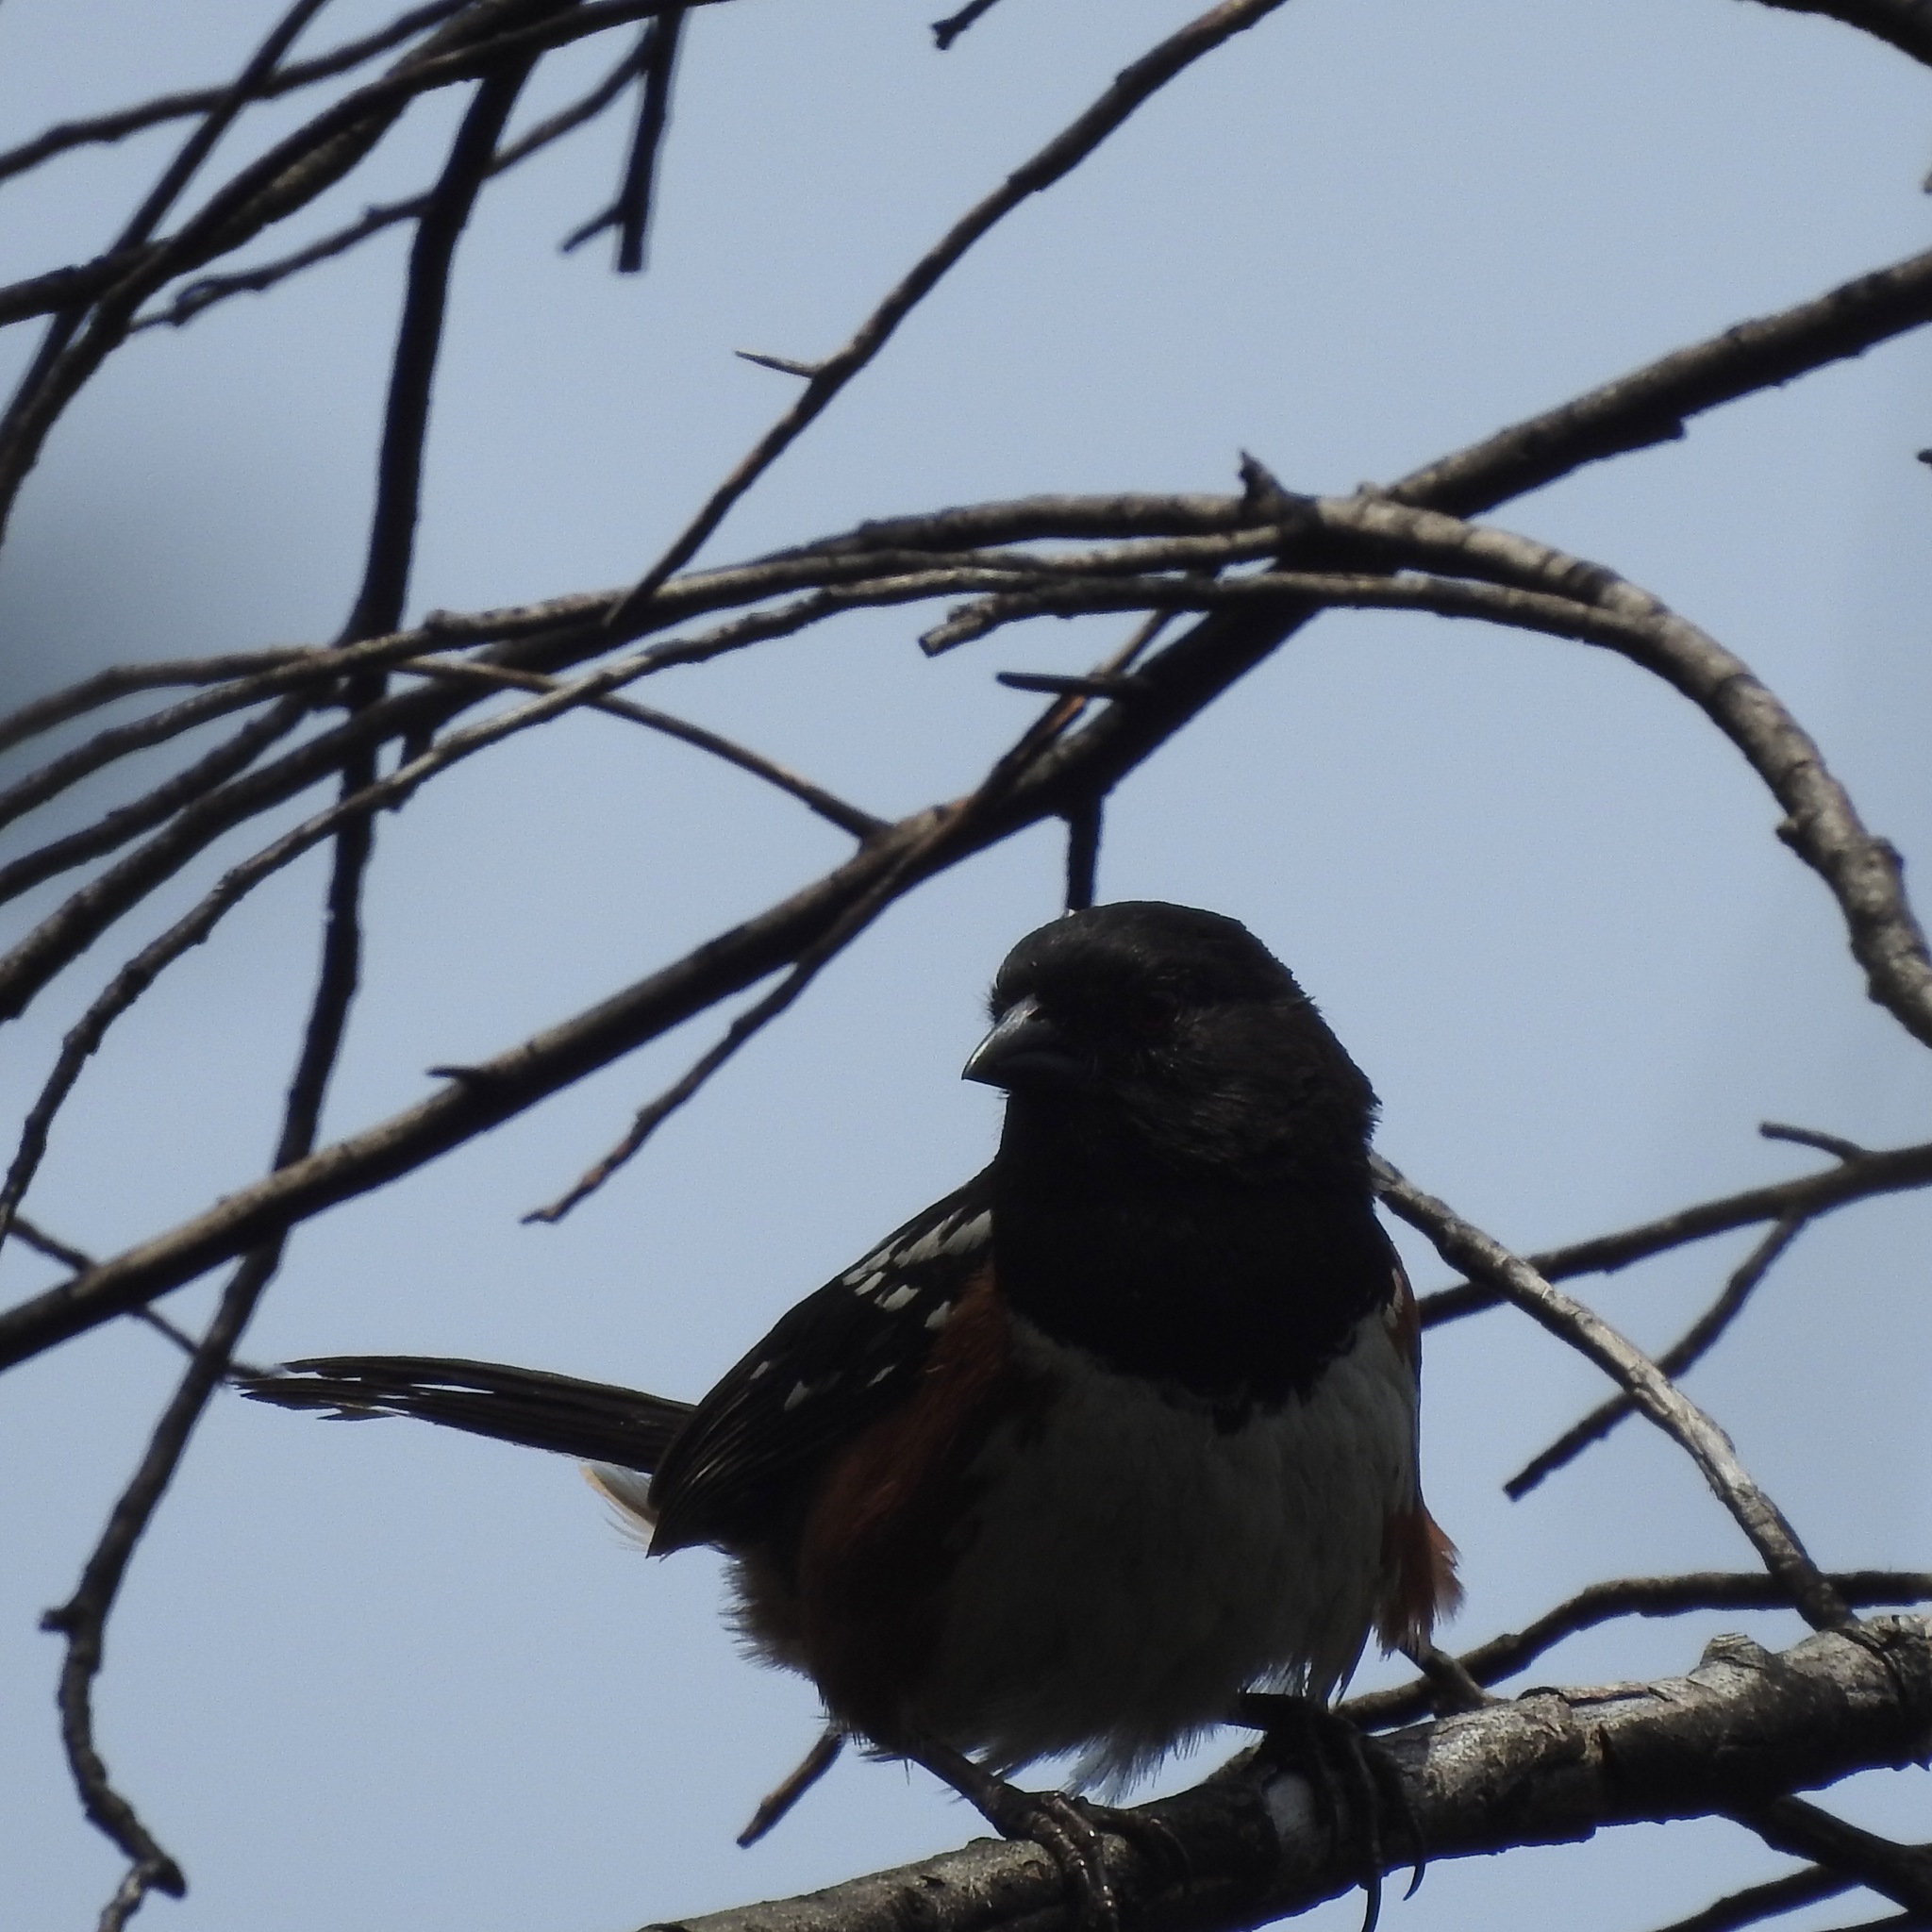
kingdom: Animalia
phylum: Chordata
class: Aves
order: Passeriformes
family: Passerellidae
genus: Pipilo
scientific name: Pipilo maculatus
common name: Spotted towhee
